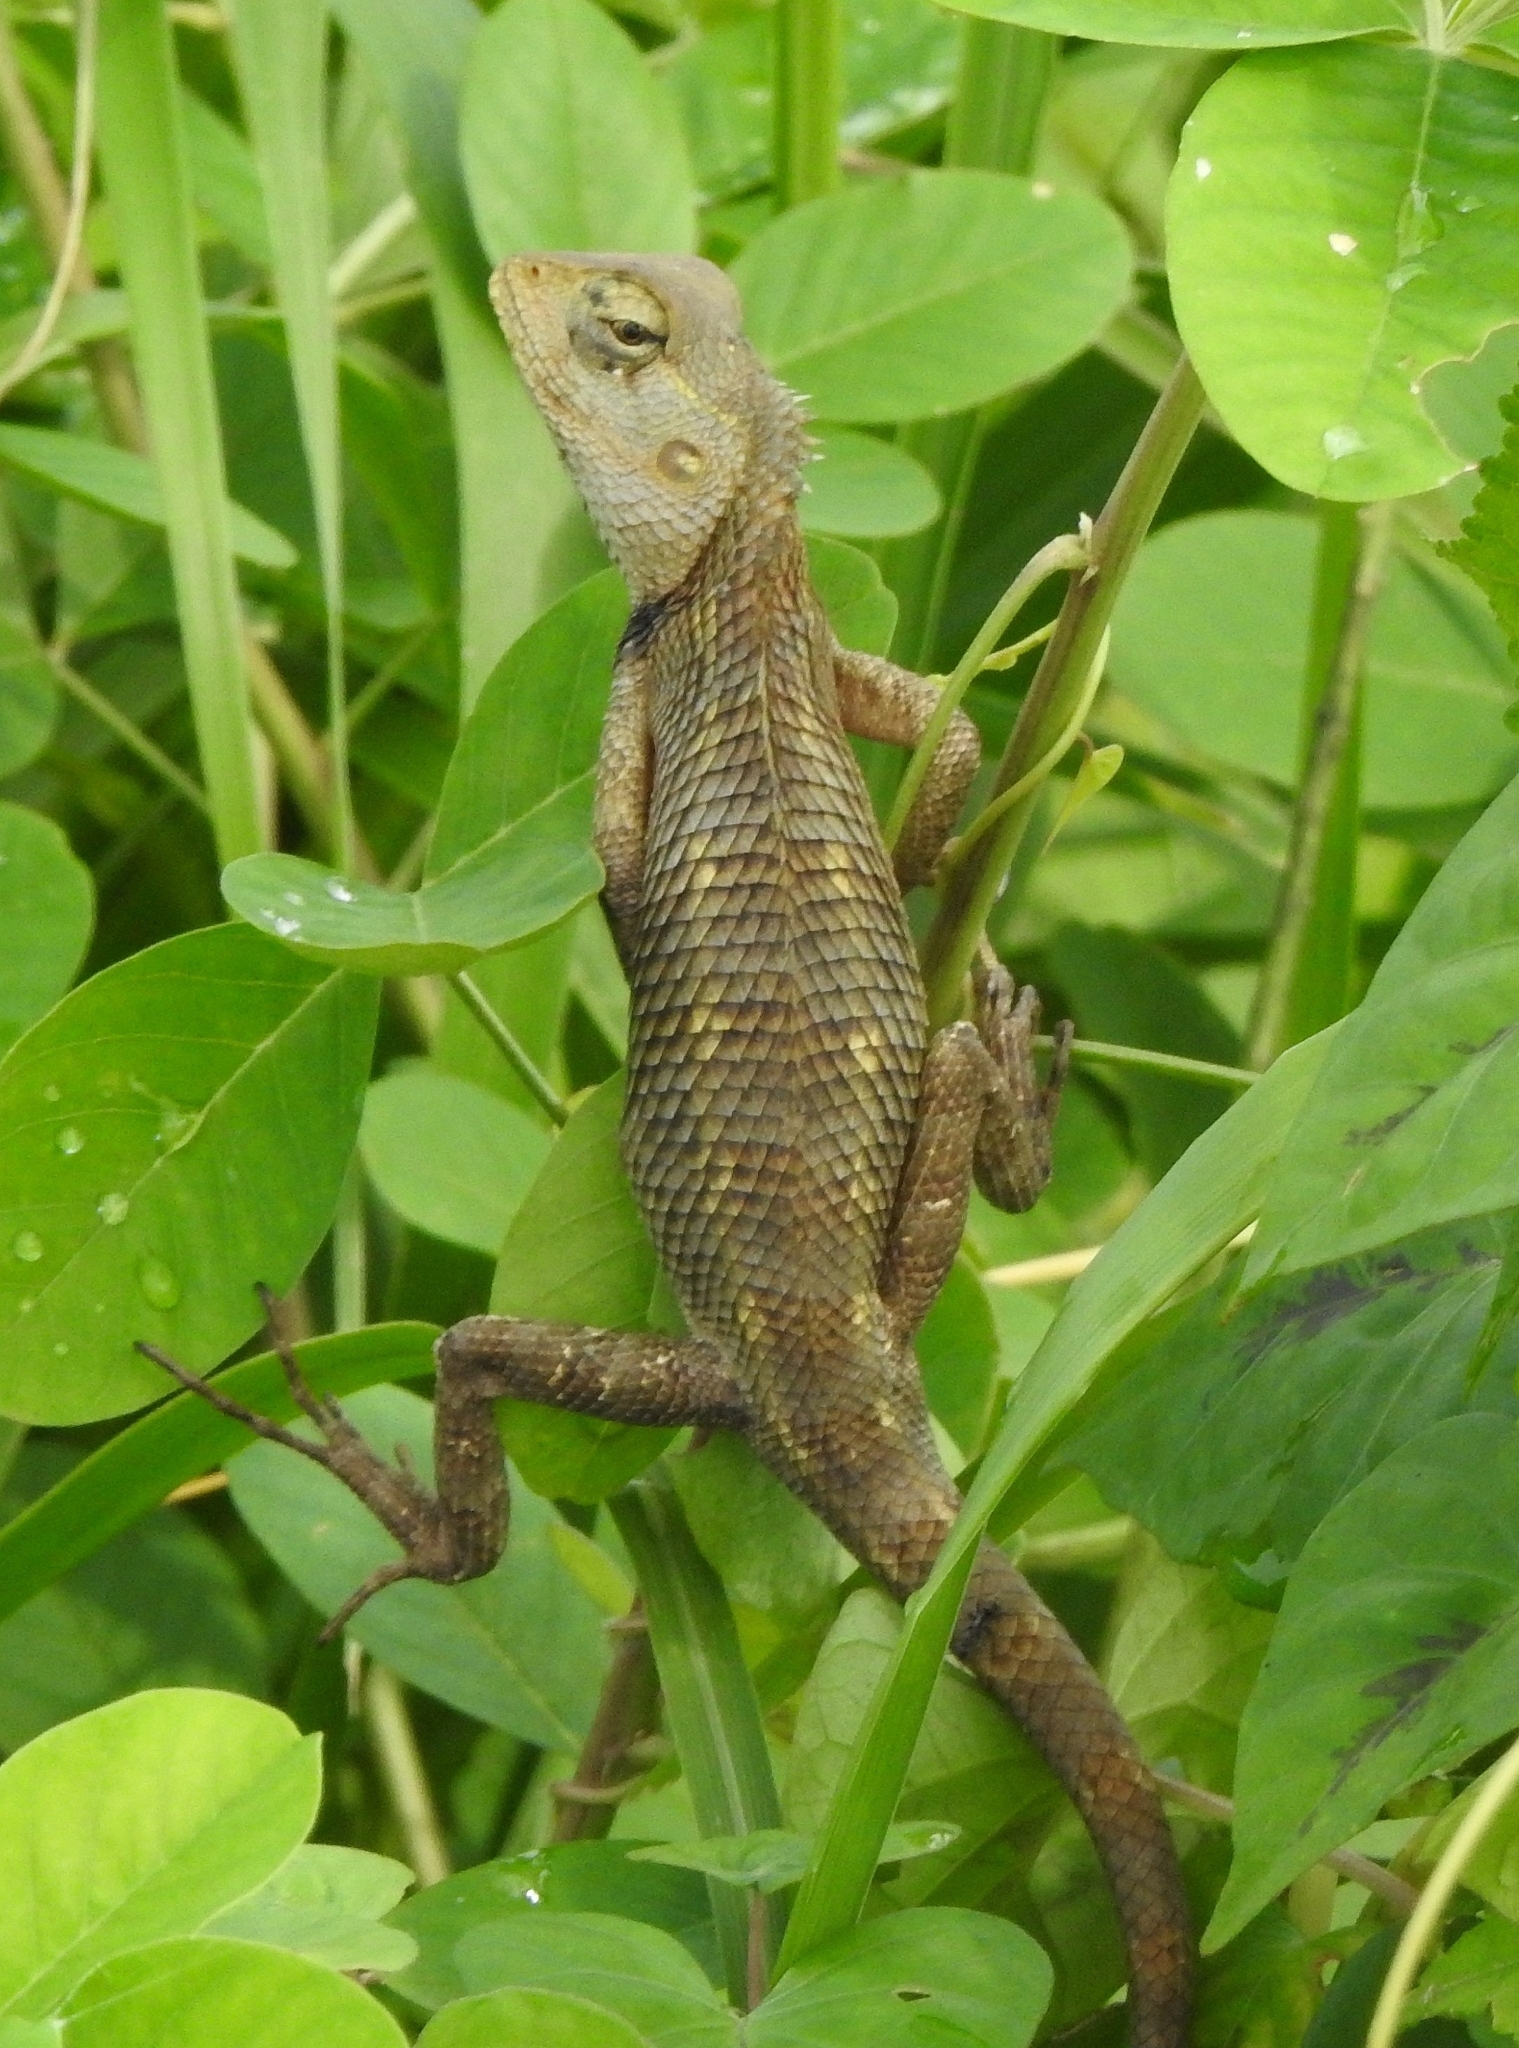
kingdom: Animalia
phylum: Chordata
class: Squamata
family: Agamidae
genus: Calotes
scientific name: Calotes versicolor
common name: Oriental garden lizard
